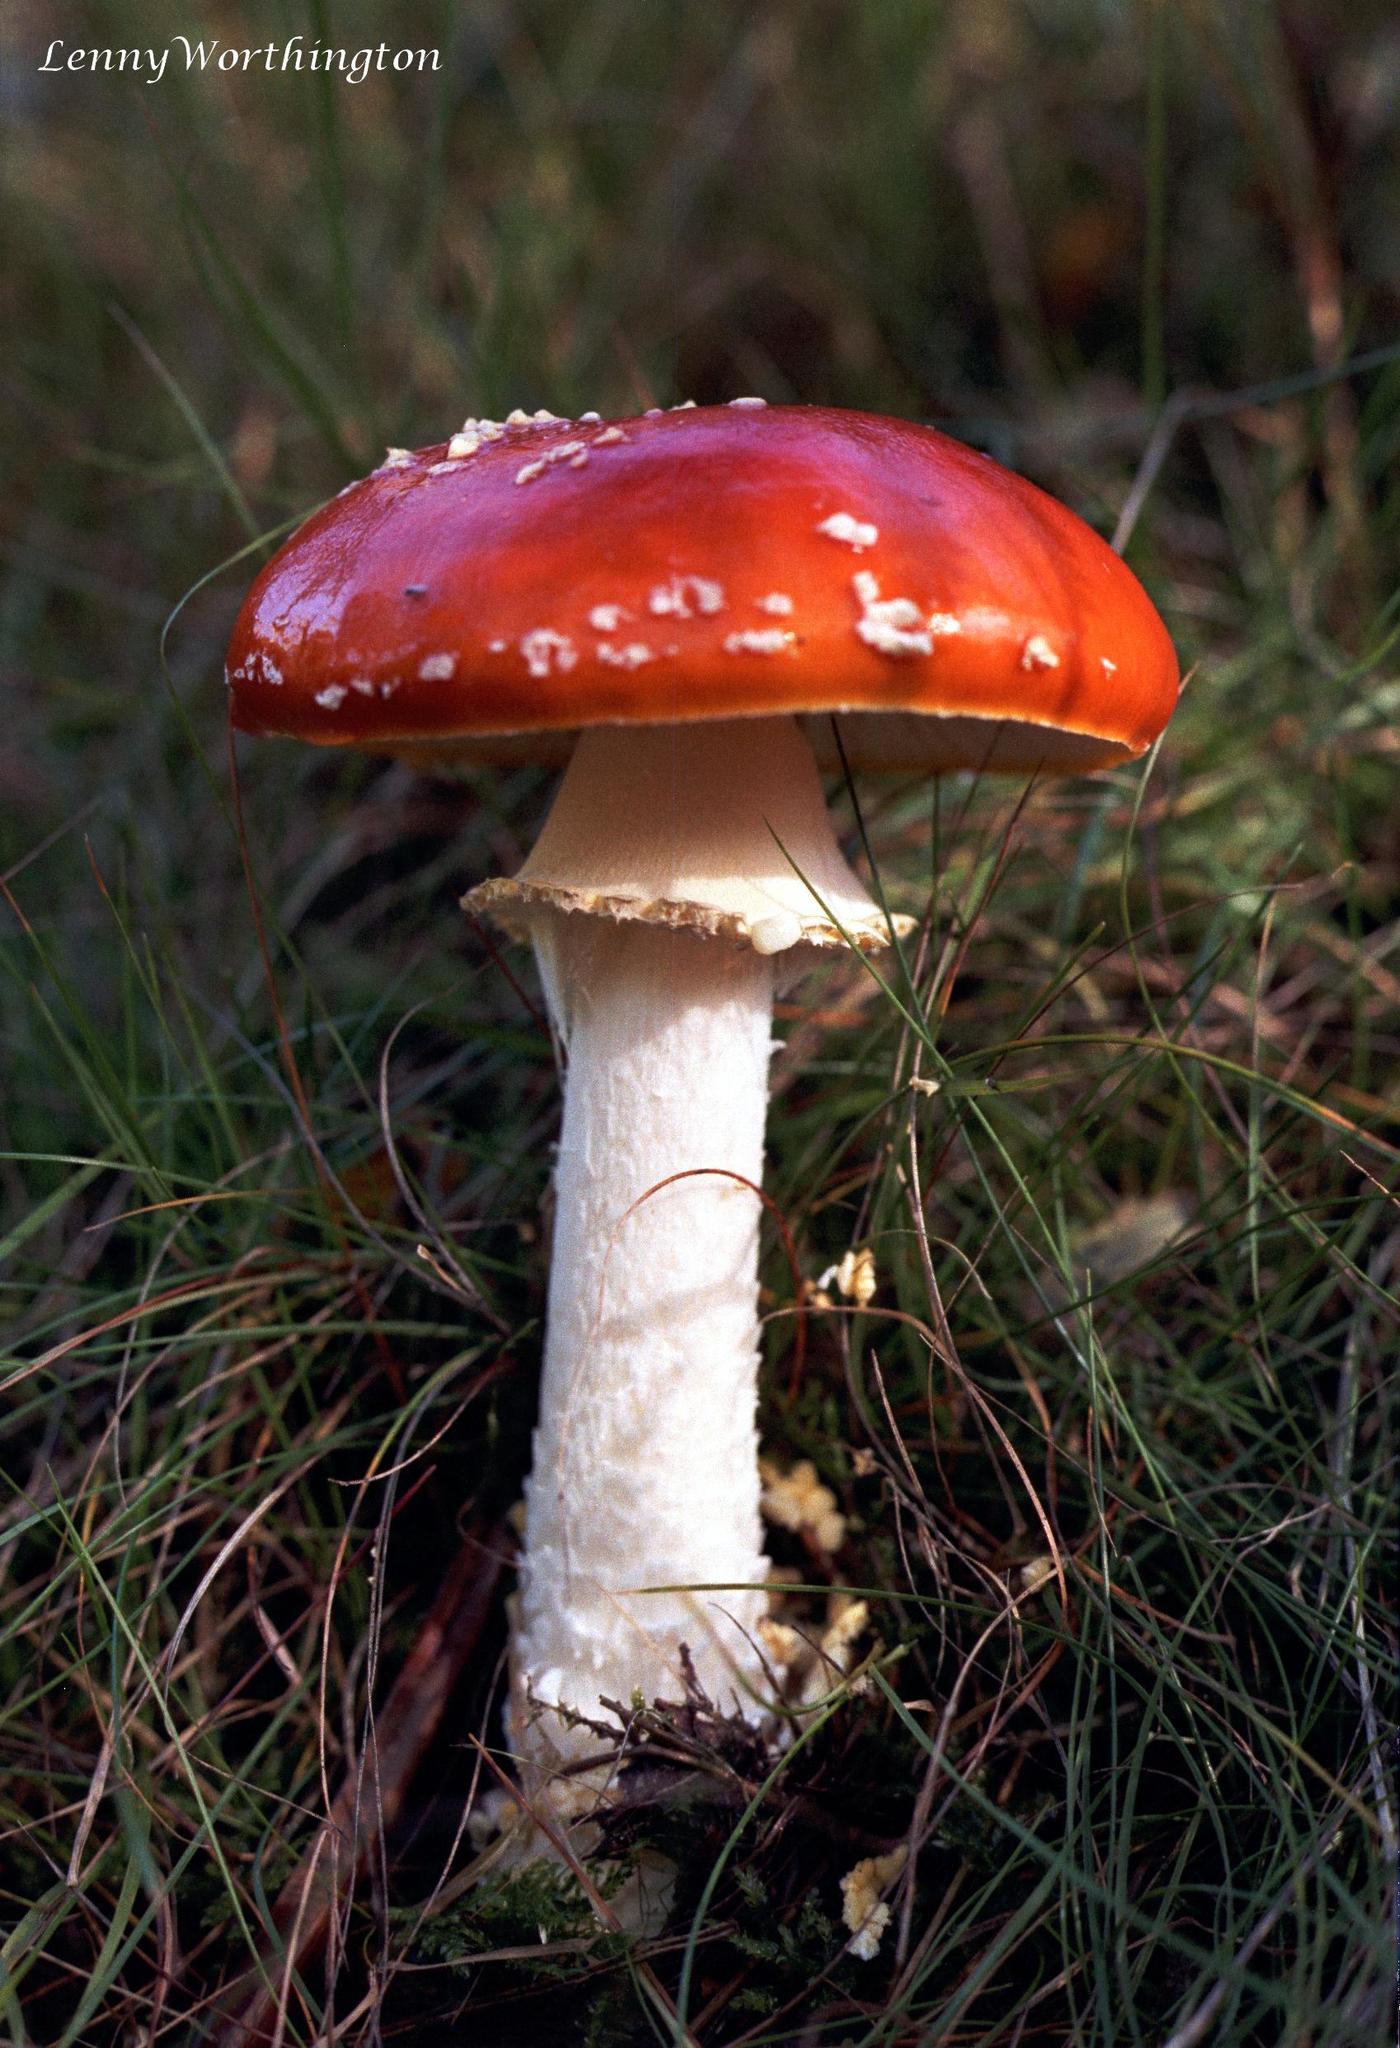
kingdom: Fungi
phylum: Basidiomycota
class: Agaricomycetes
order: Agaricales
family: Amanitaceae
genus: Amanita
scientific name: Amanita muscaria
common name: Fly agaric
